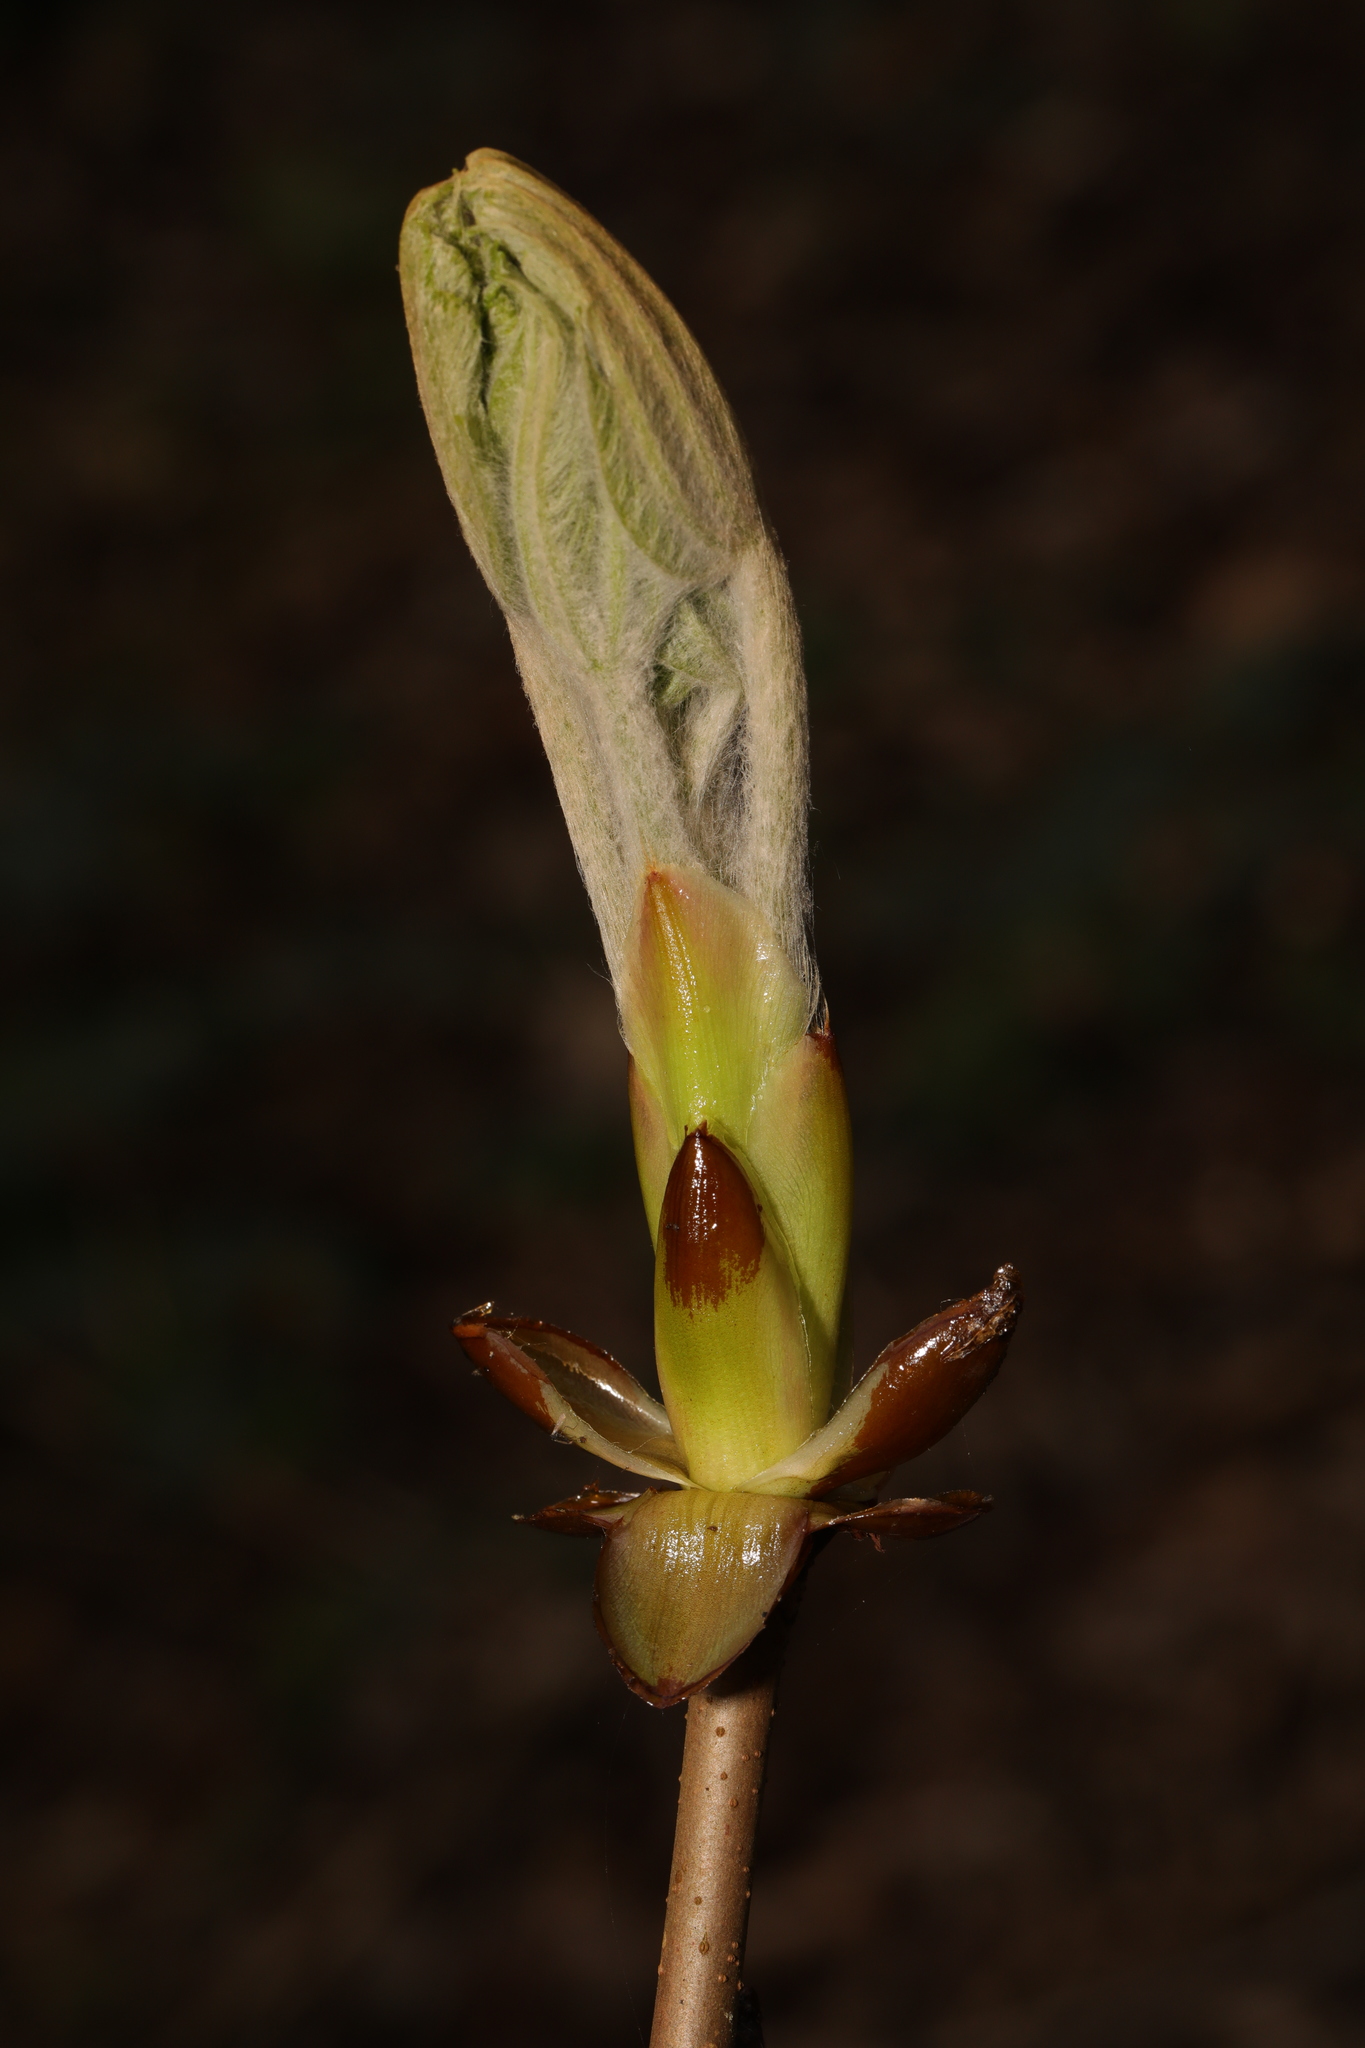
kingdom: Plantae
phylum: Tracheophyta
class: Magnoliopsida
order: Sapindales
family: Sapindaceae
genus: Aesculus
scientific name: Aesculus hippocastanum
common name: Horse-chestnut
